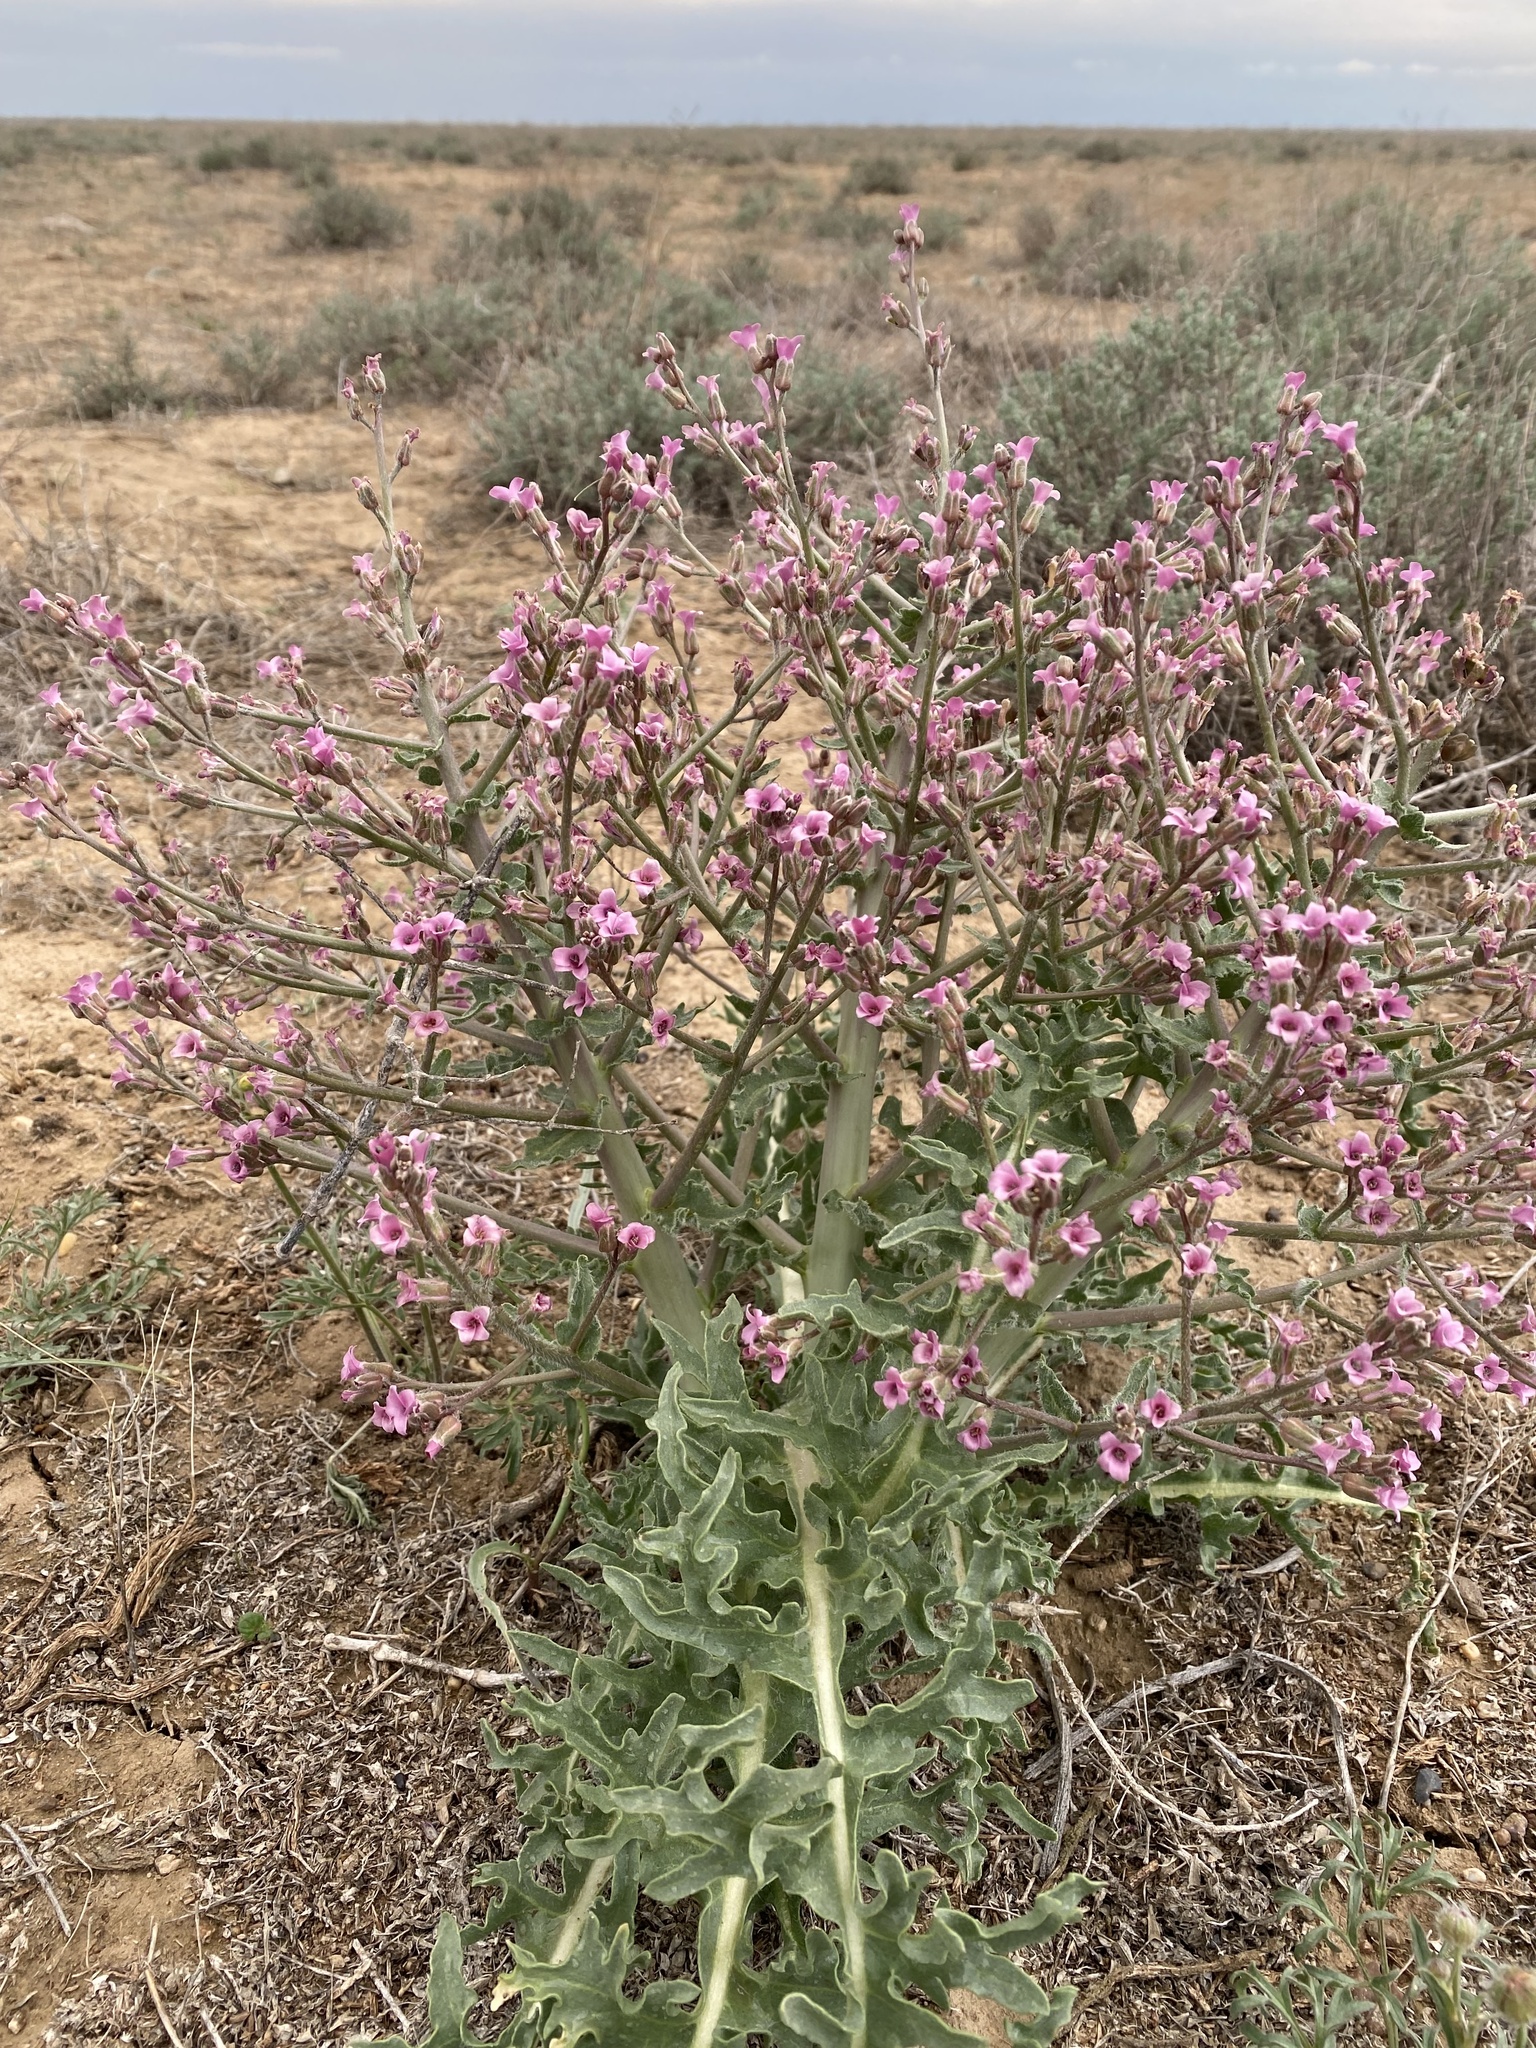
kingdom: Plantae
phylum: Tracheophyta
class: Magnoliopsida
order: Brassicales
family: Brassicaceae
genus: Megacarpaea
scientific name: Megacarpaea megalocarpa
